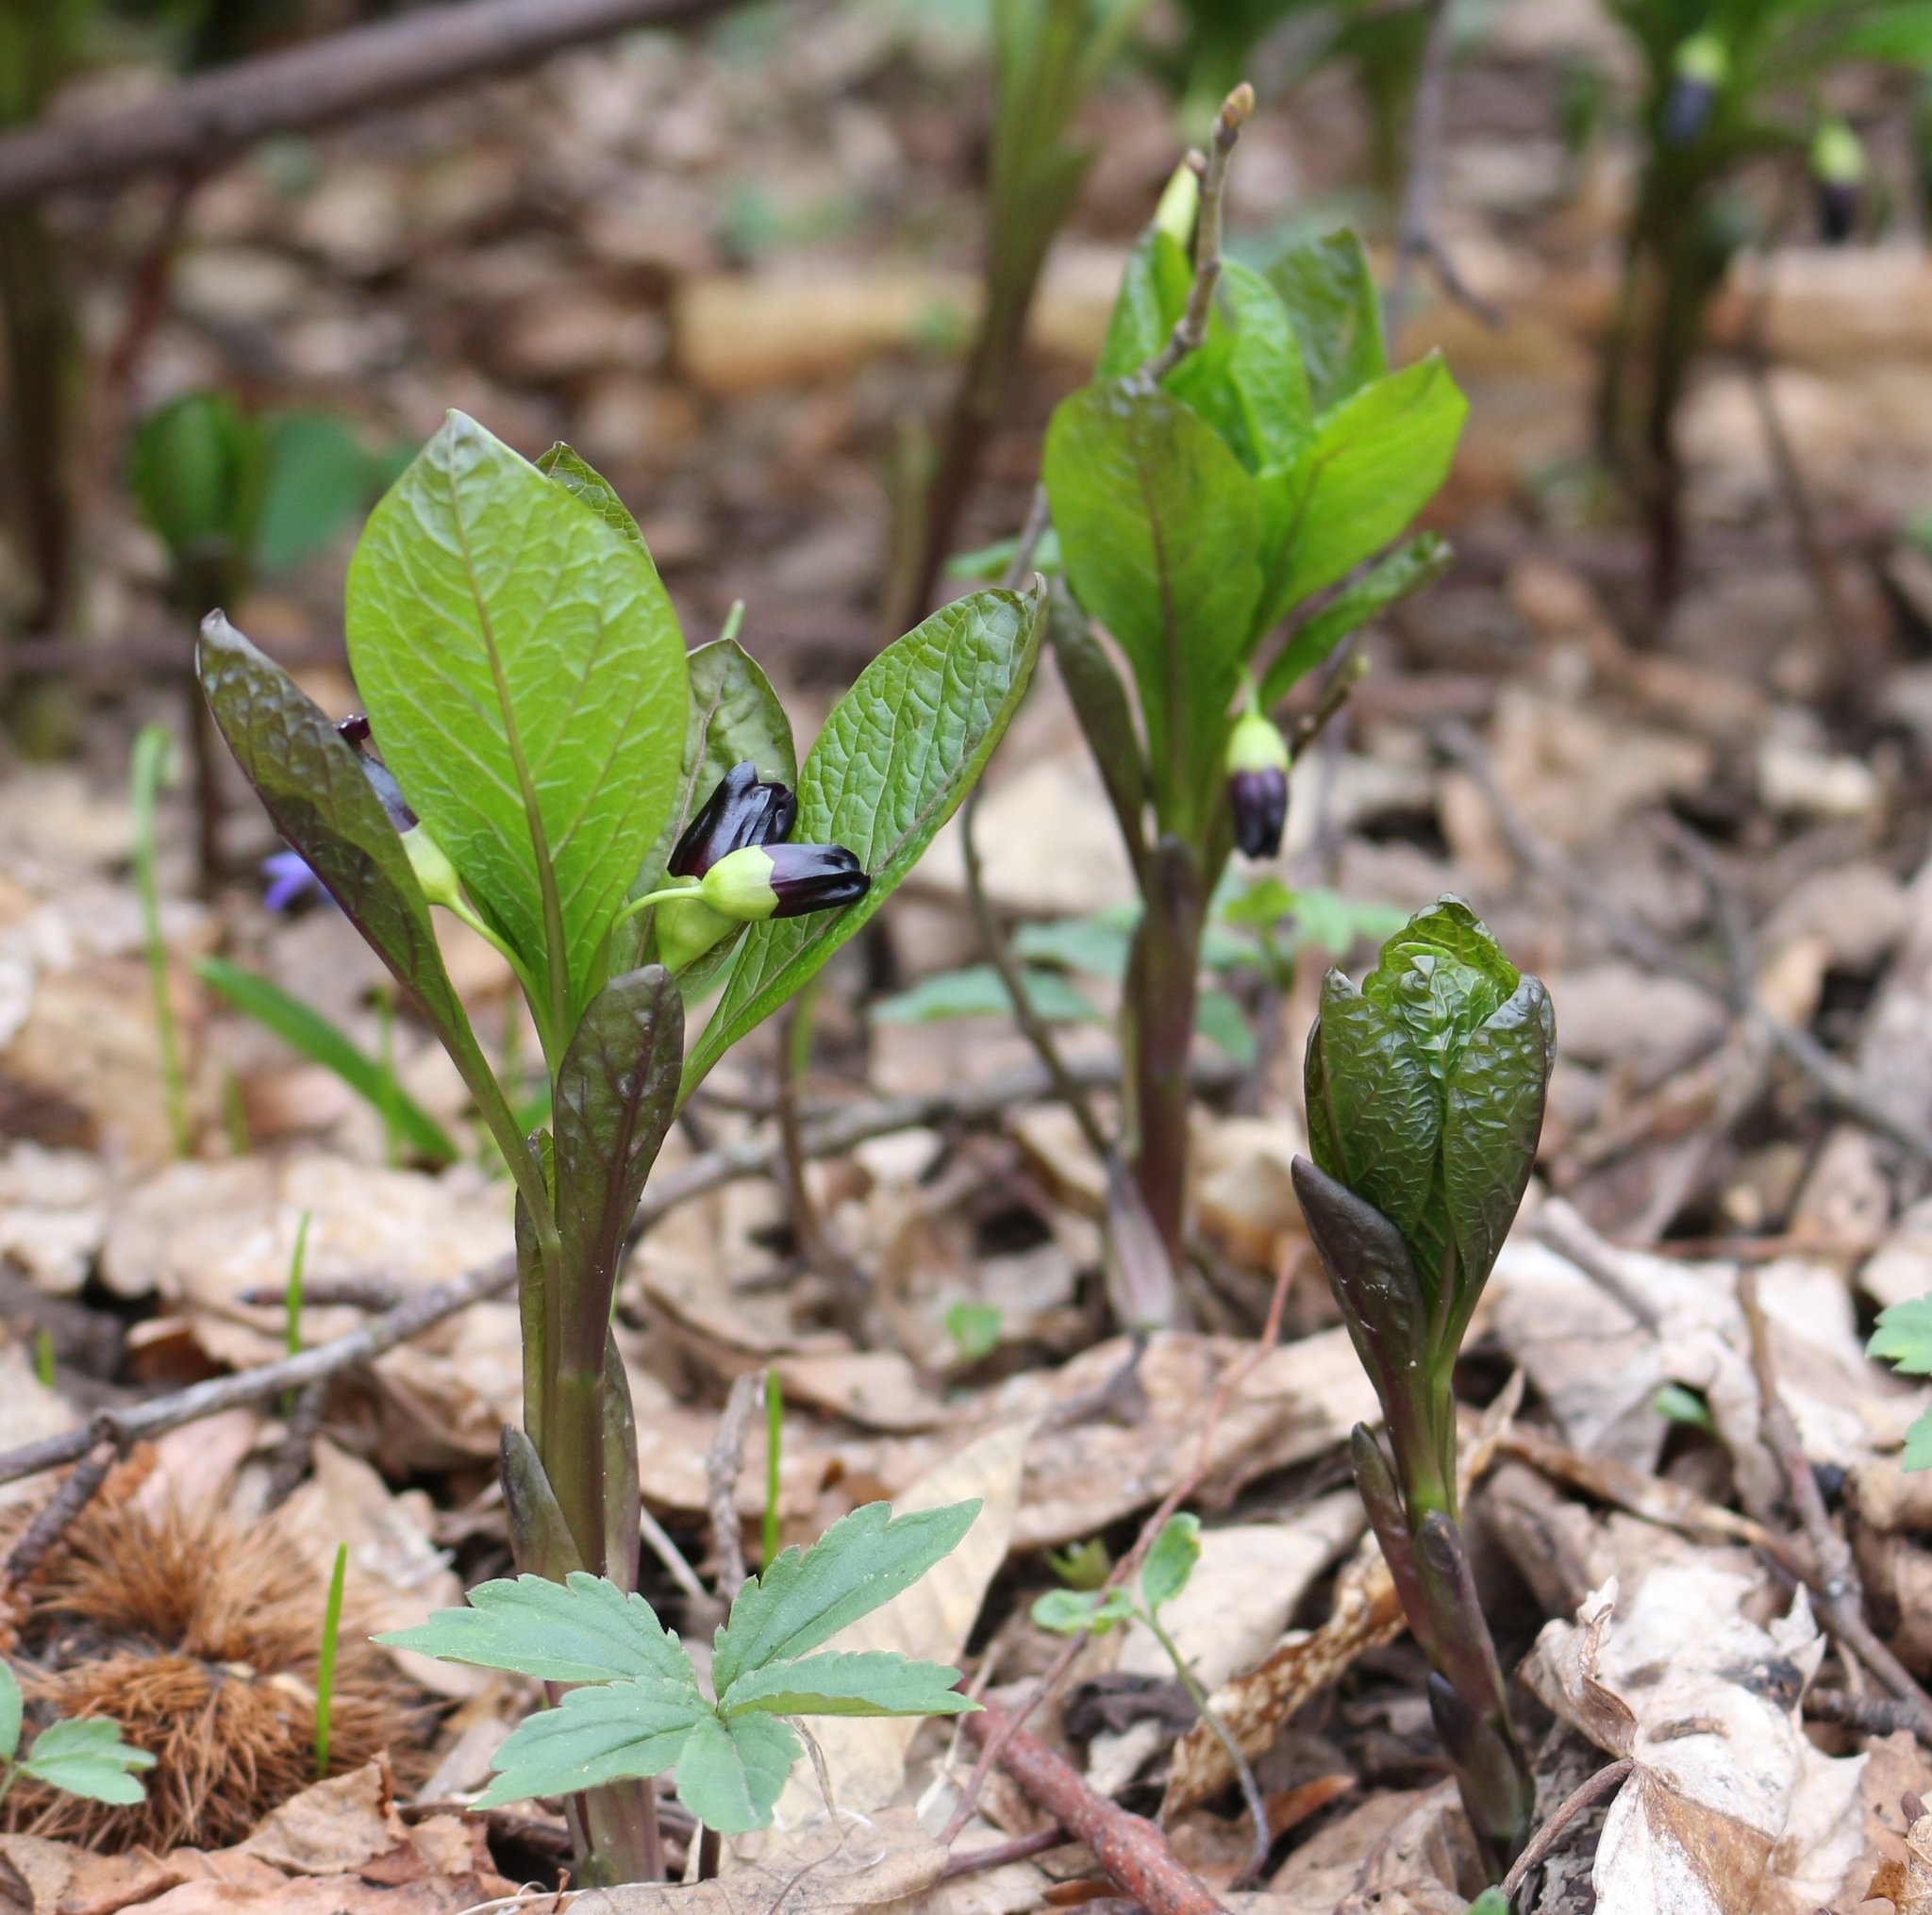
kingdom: Plantae
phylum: Tracheophyta
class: Magnoliopsida
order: Solanales
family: Solanaceae
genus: Scopolia
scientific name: Scopolia carniolica
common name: Scopolia
